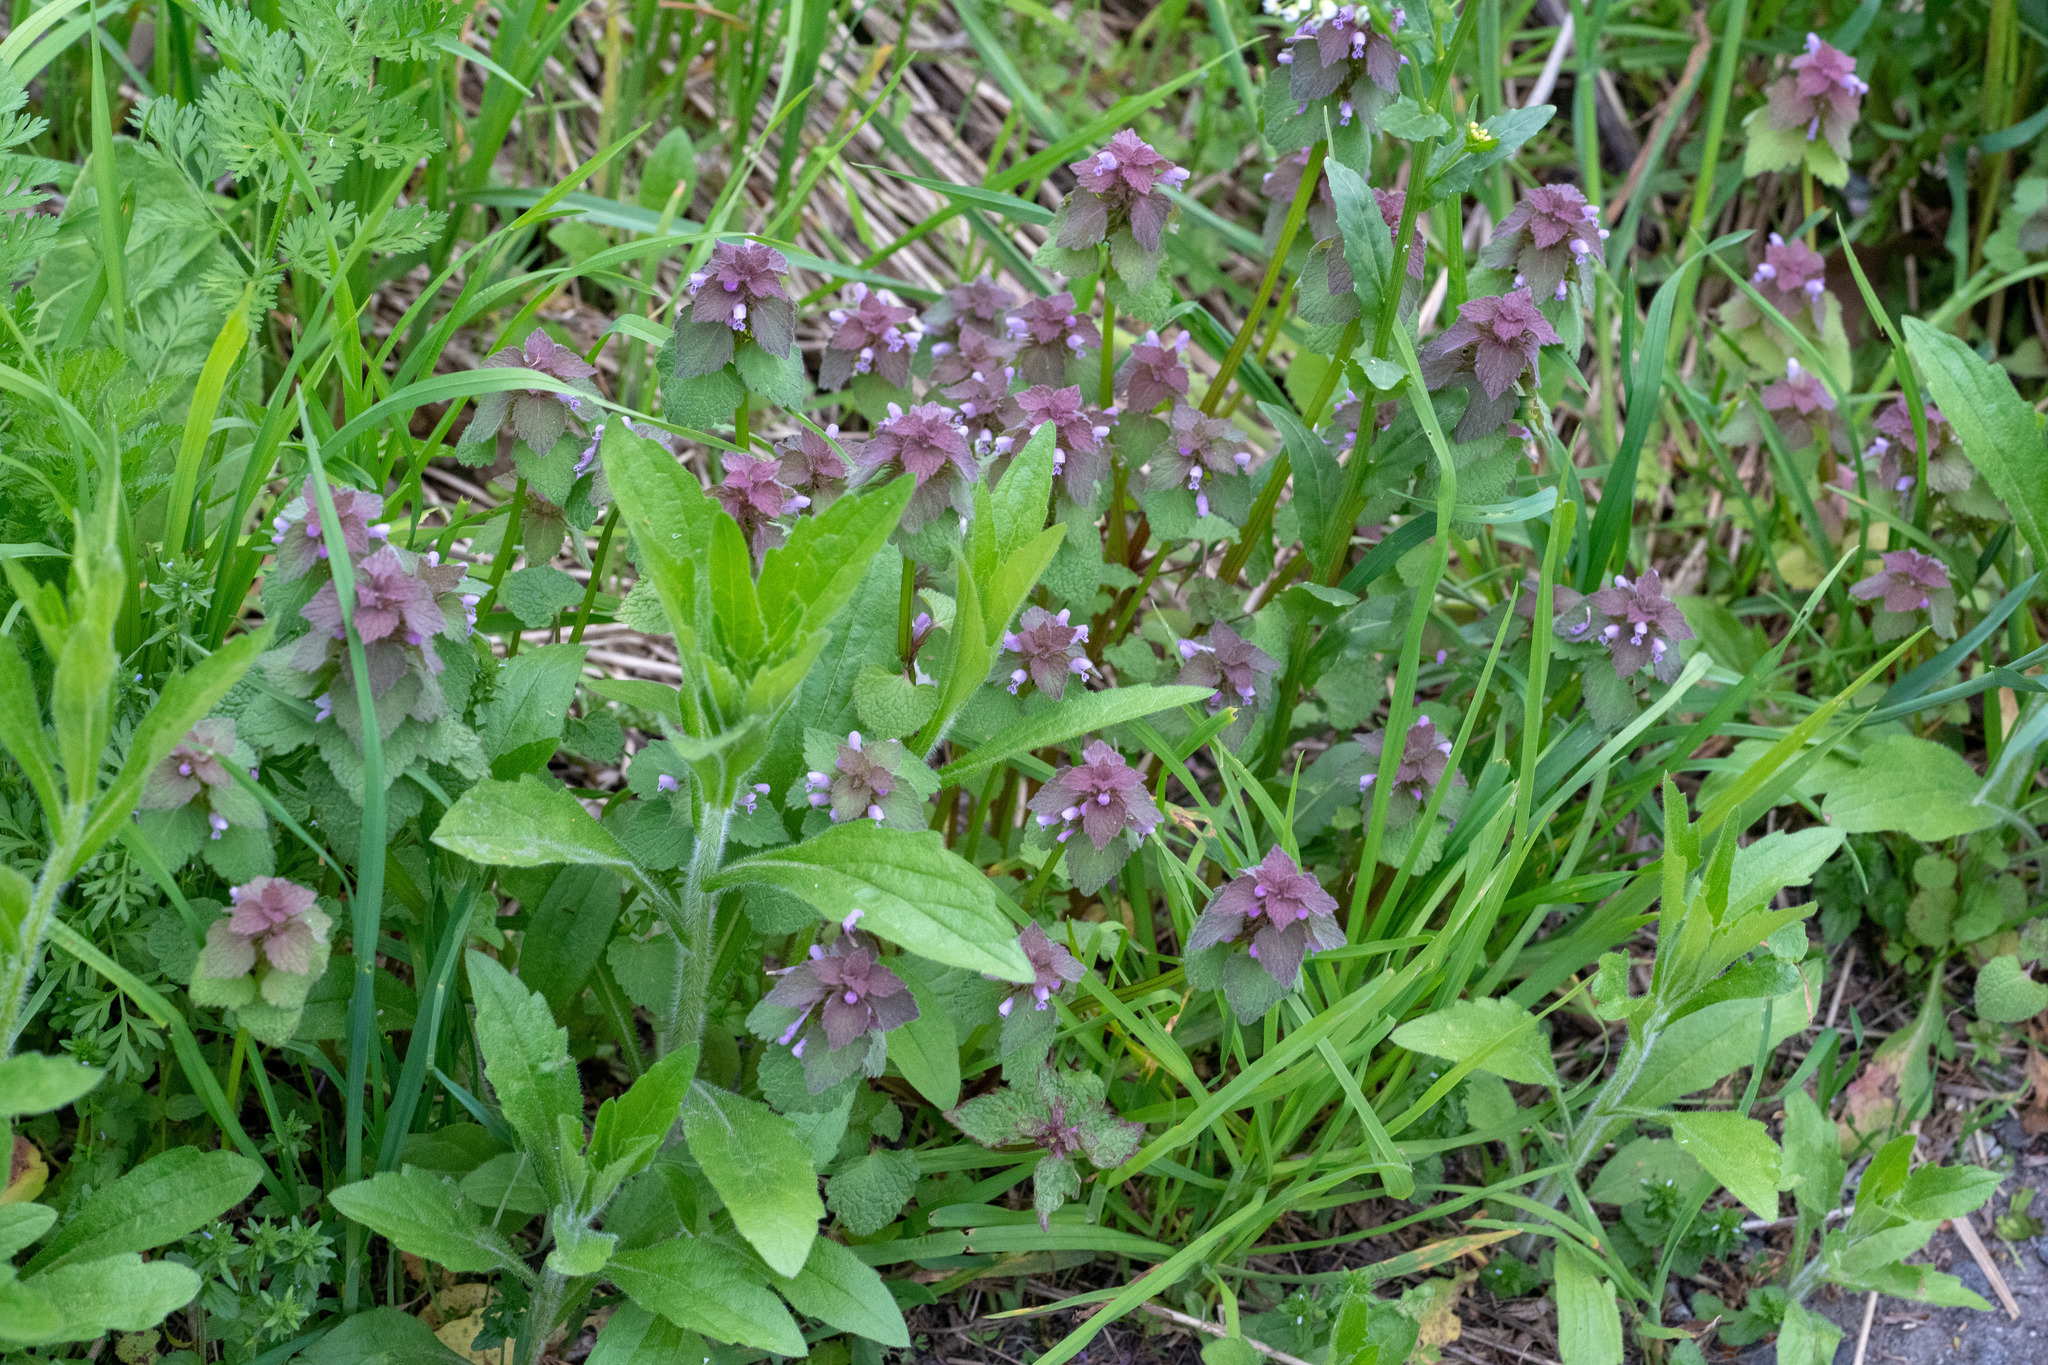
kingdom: Plantae
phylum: Tracheophyta
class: Magnoliopsida
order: Lamiales
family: Lamiaceae
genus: Lamium
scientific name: Lamium purpureum
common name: Red dead-nettle
